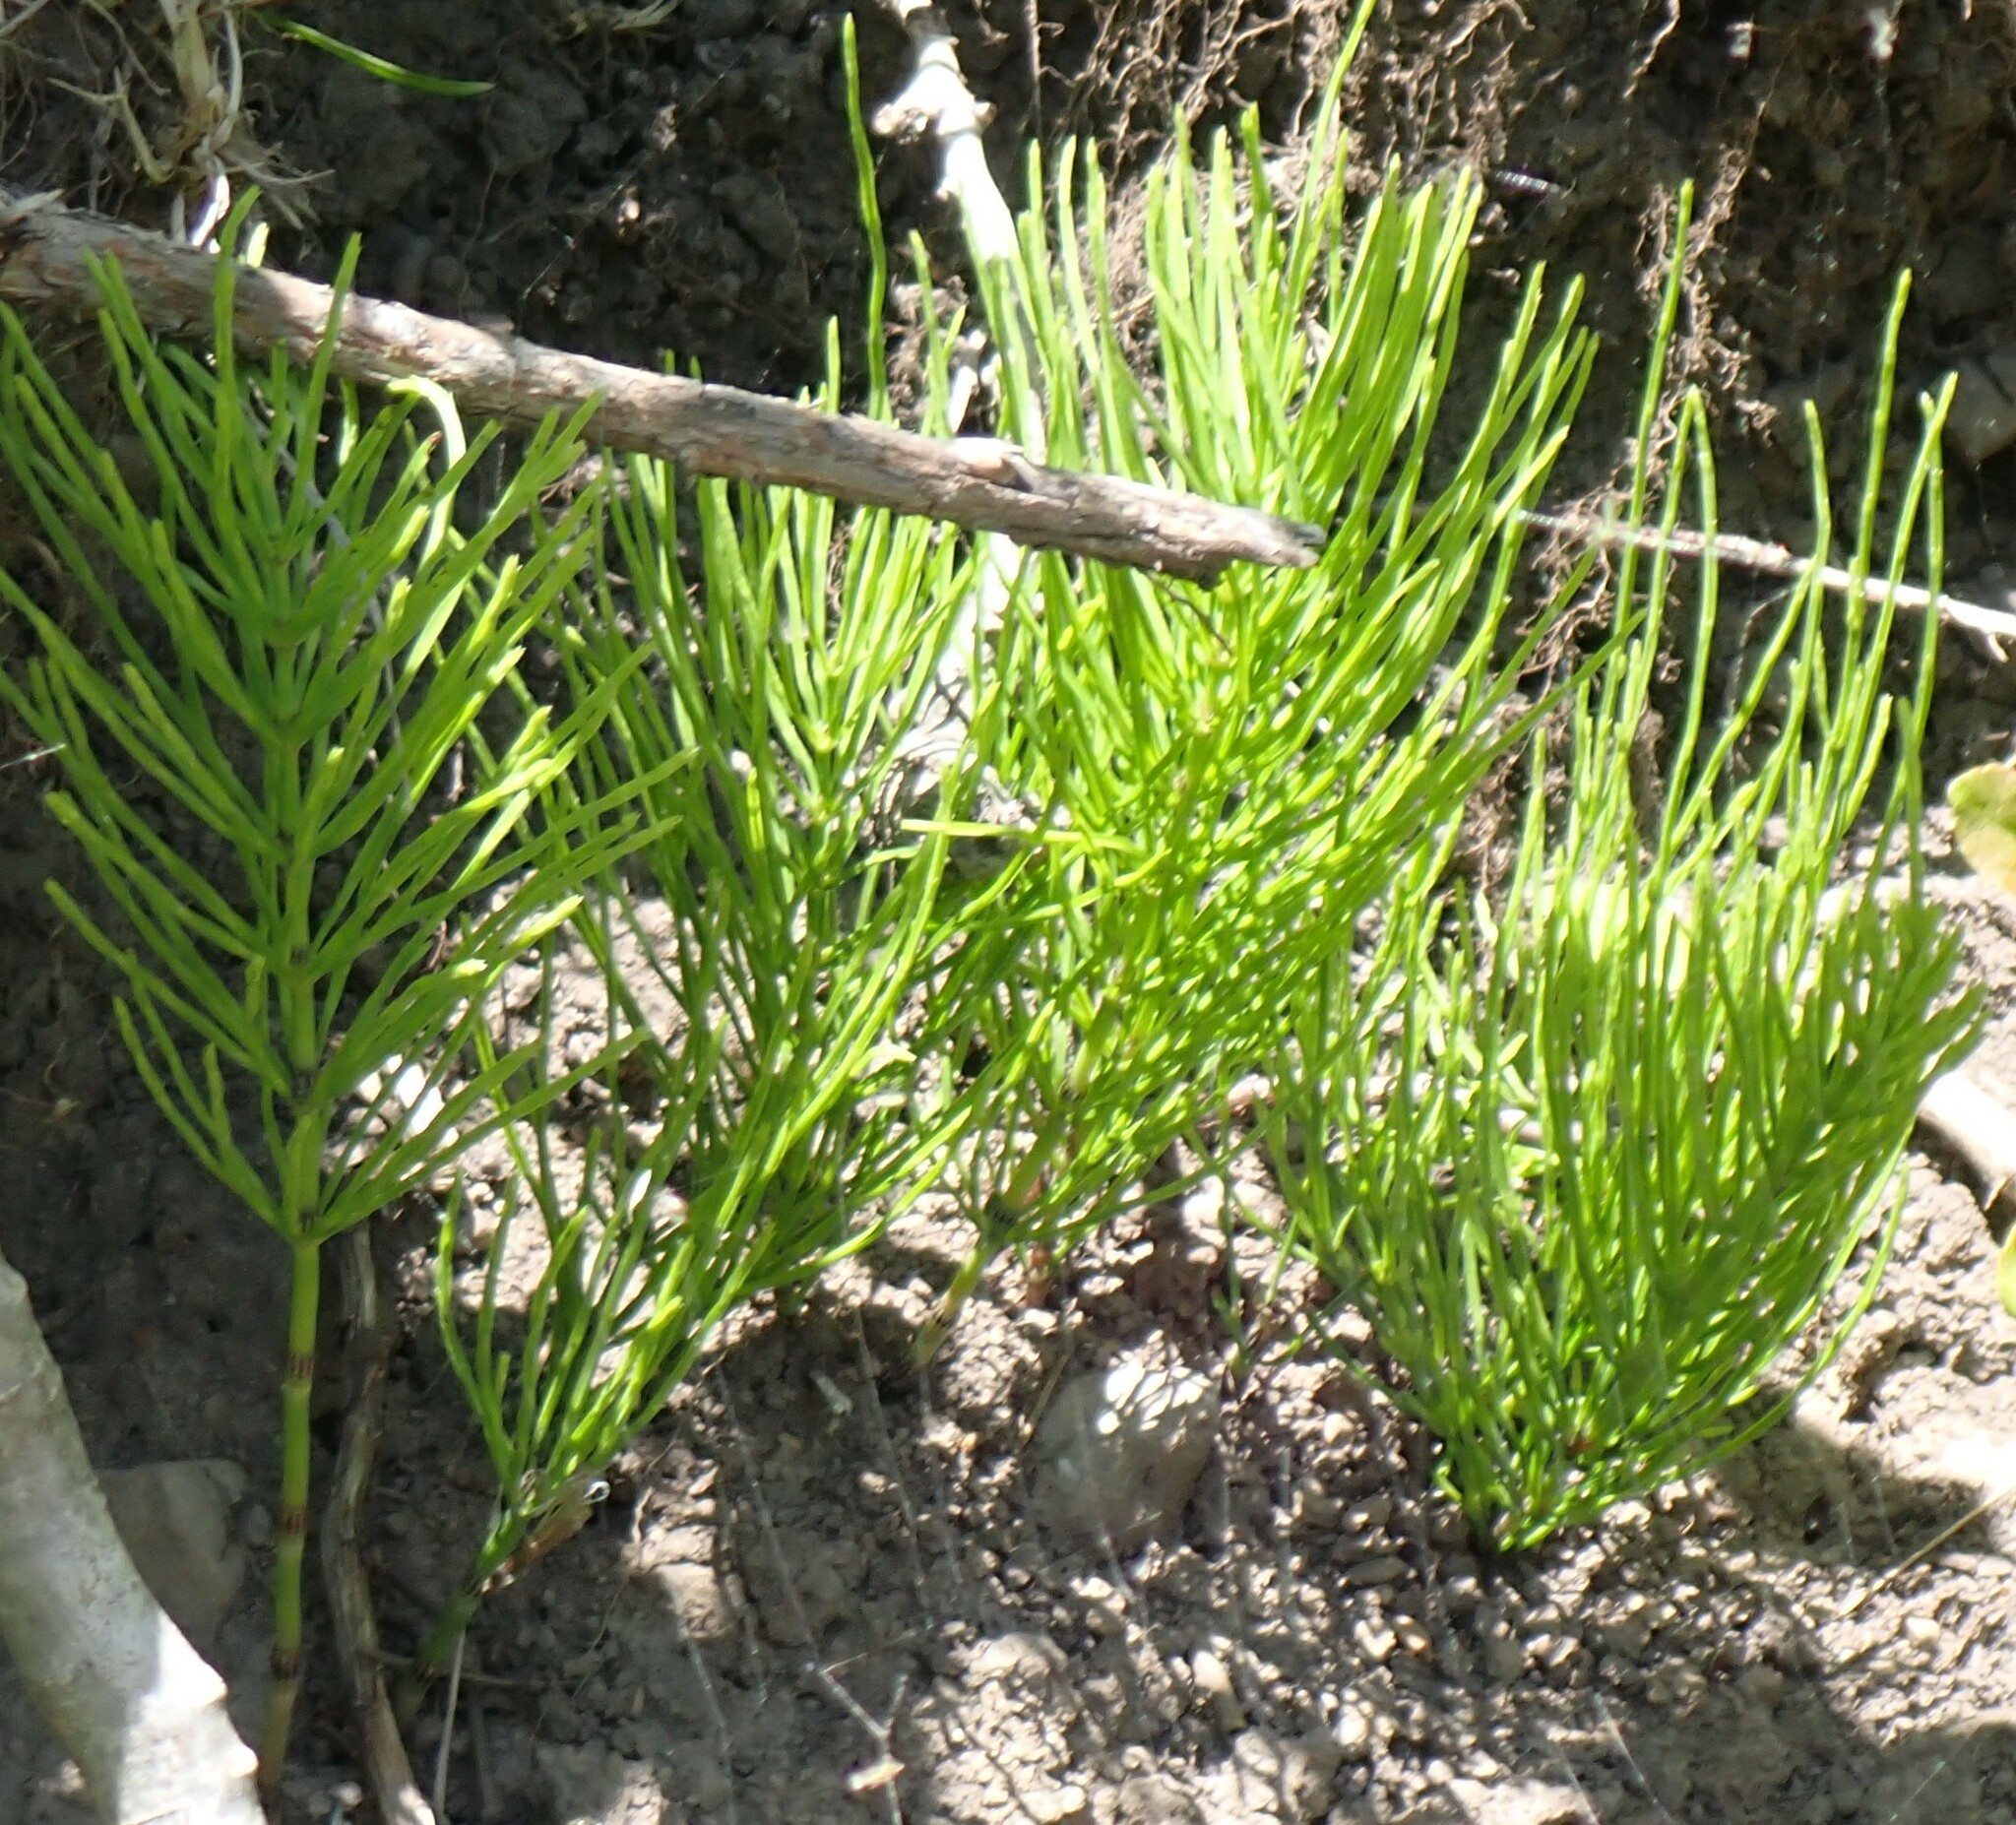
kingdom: Plantae
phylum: Tracheophyta
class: Polypodiopsida
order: Equisetales
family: Equisetaceae
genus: Equisetum
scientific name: Equisetum arvense
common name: Field horsetail
